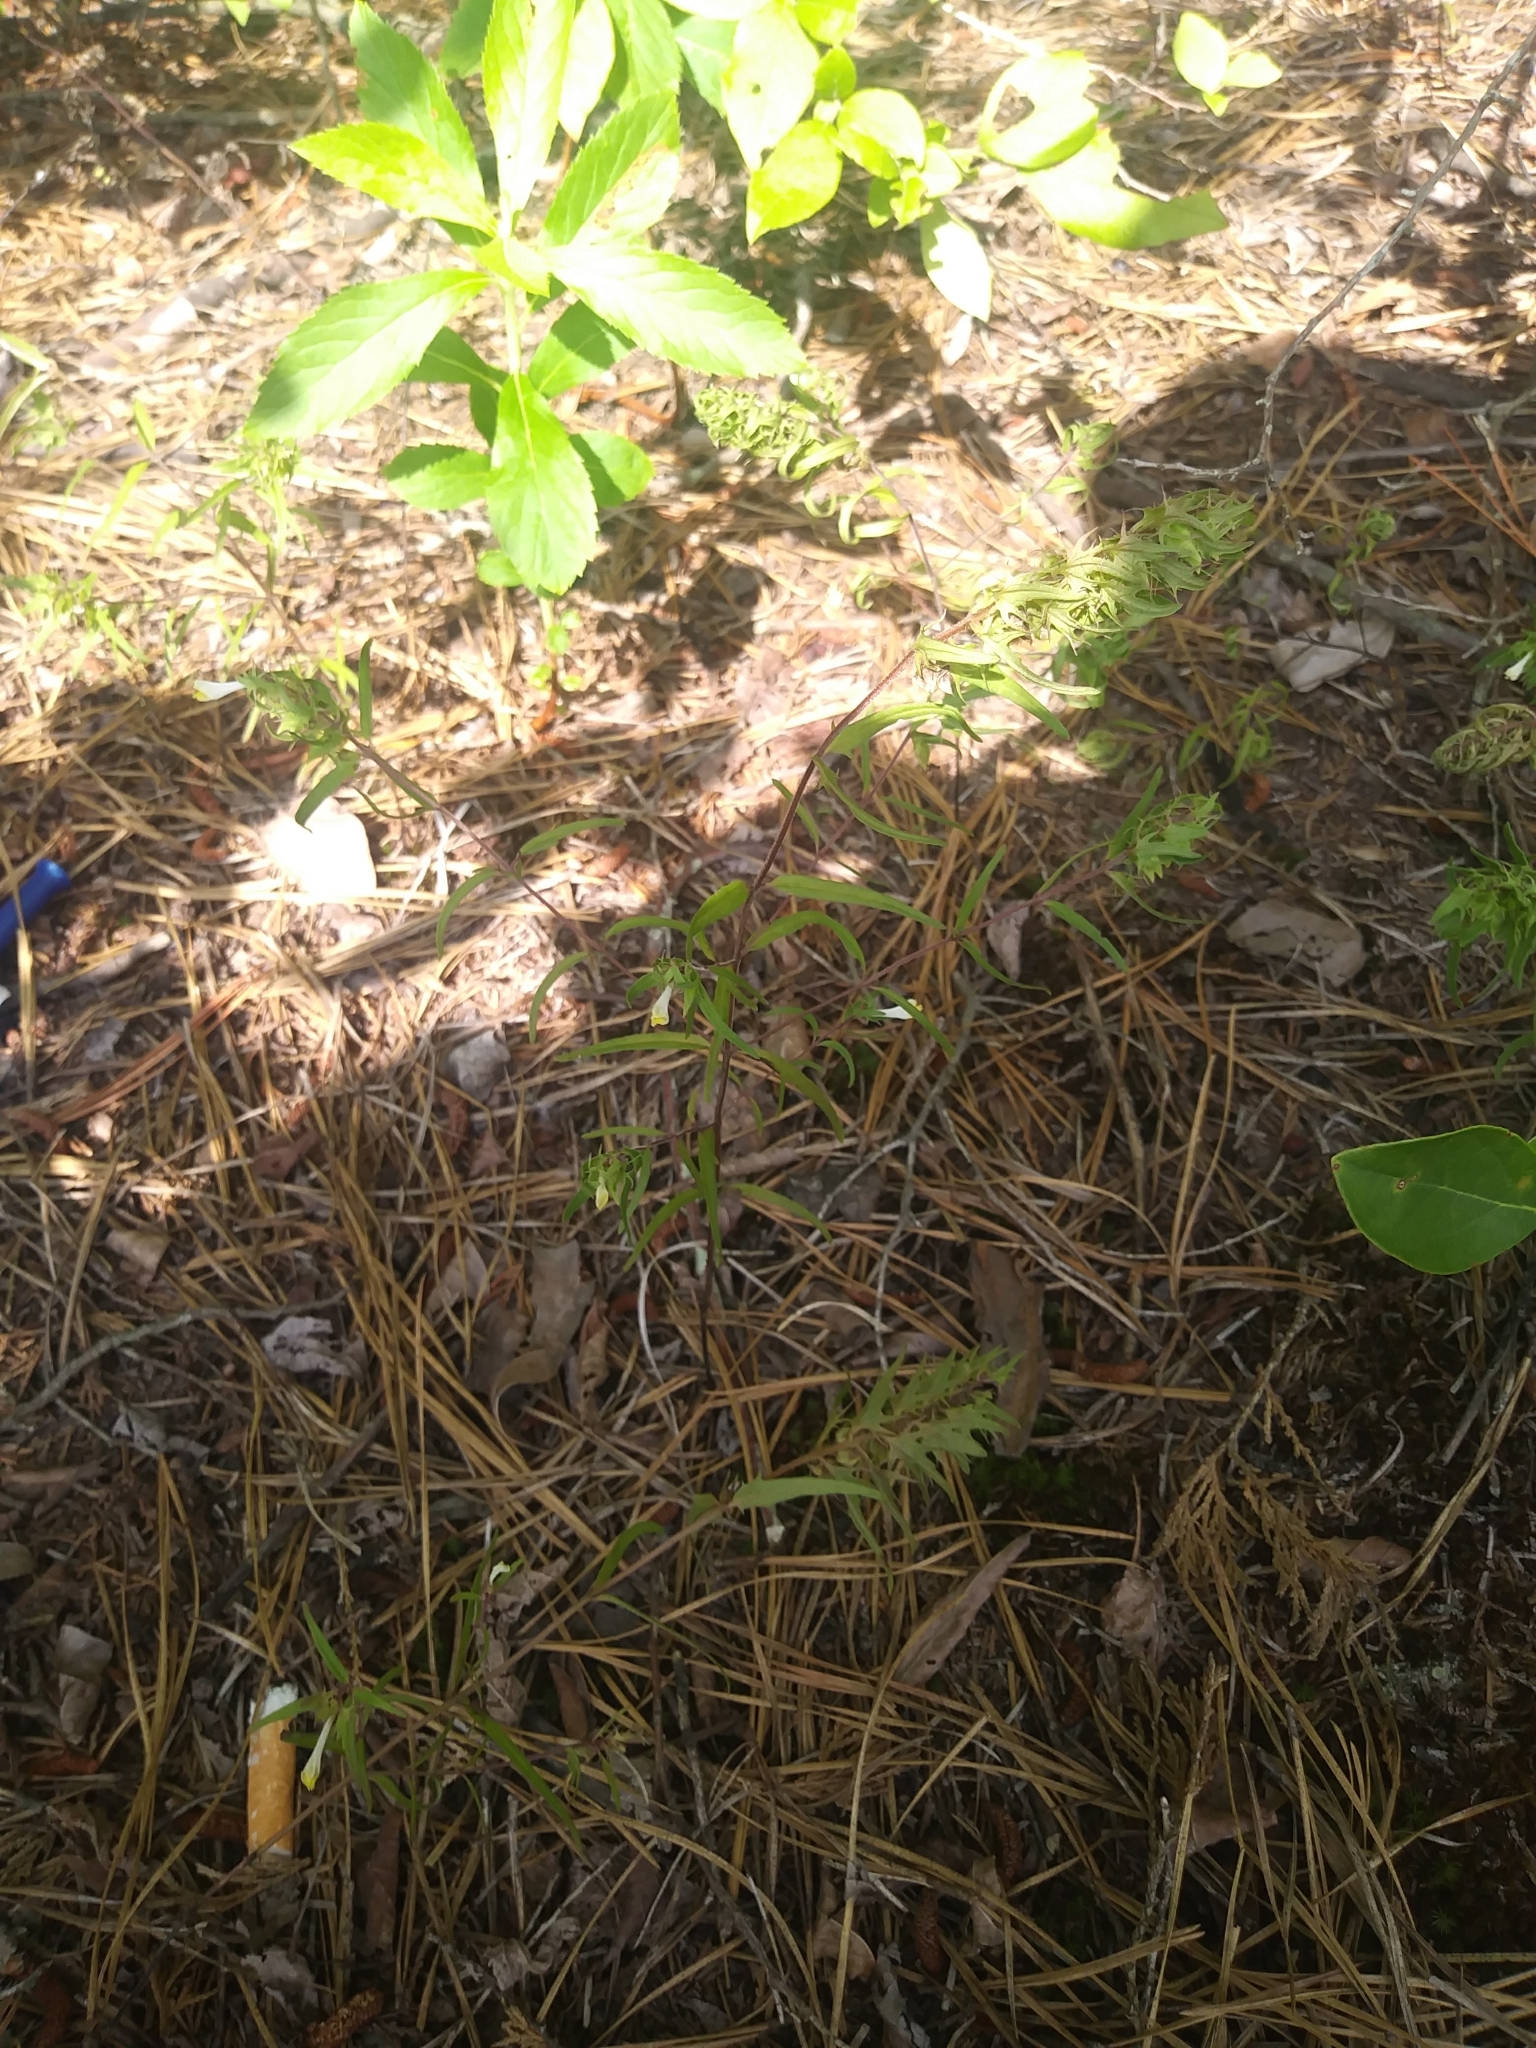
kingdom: Plantae
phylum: Tracheophyta
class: Magnoliopsida
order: Lamiales
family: Orobanchaceae
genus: Melampyrum
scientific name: Melampyrum lineare
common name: American cow-wheat
